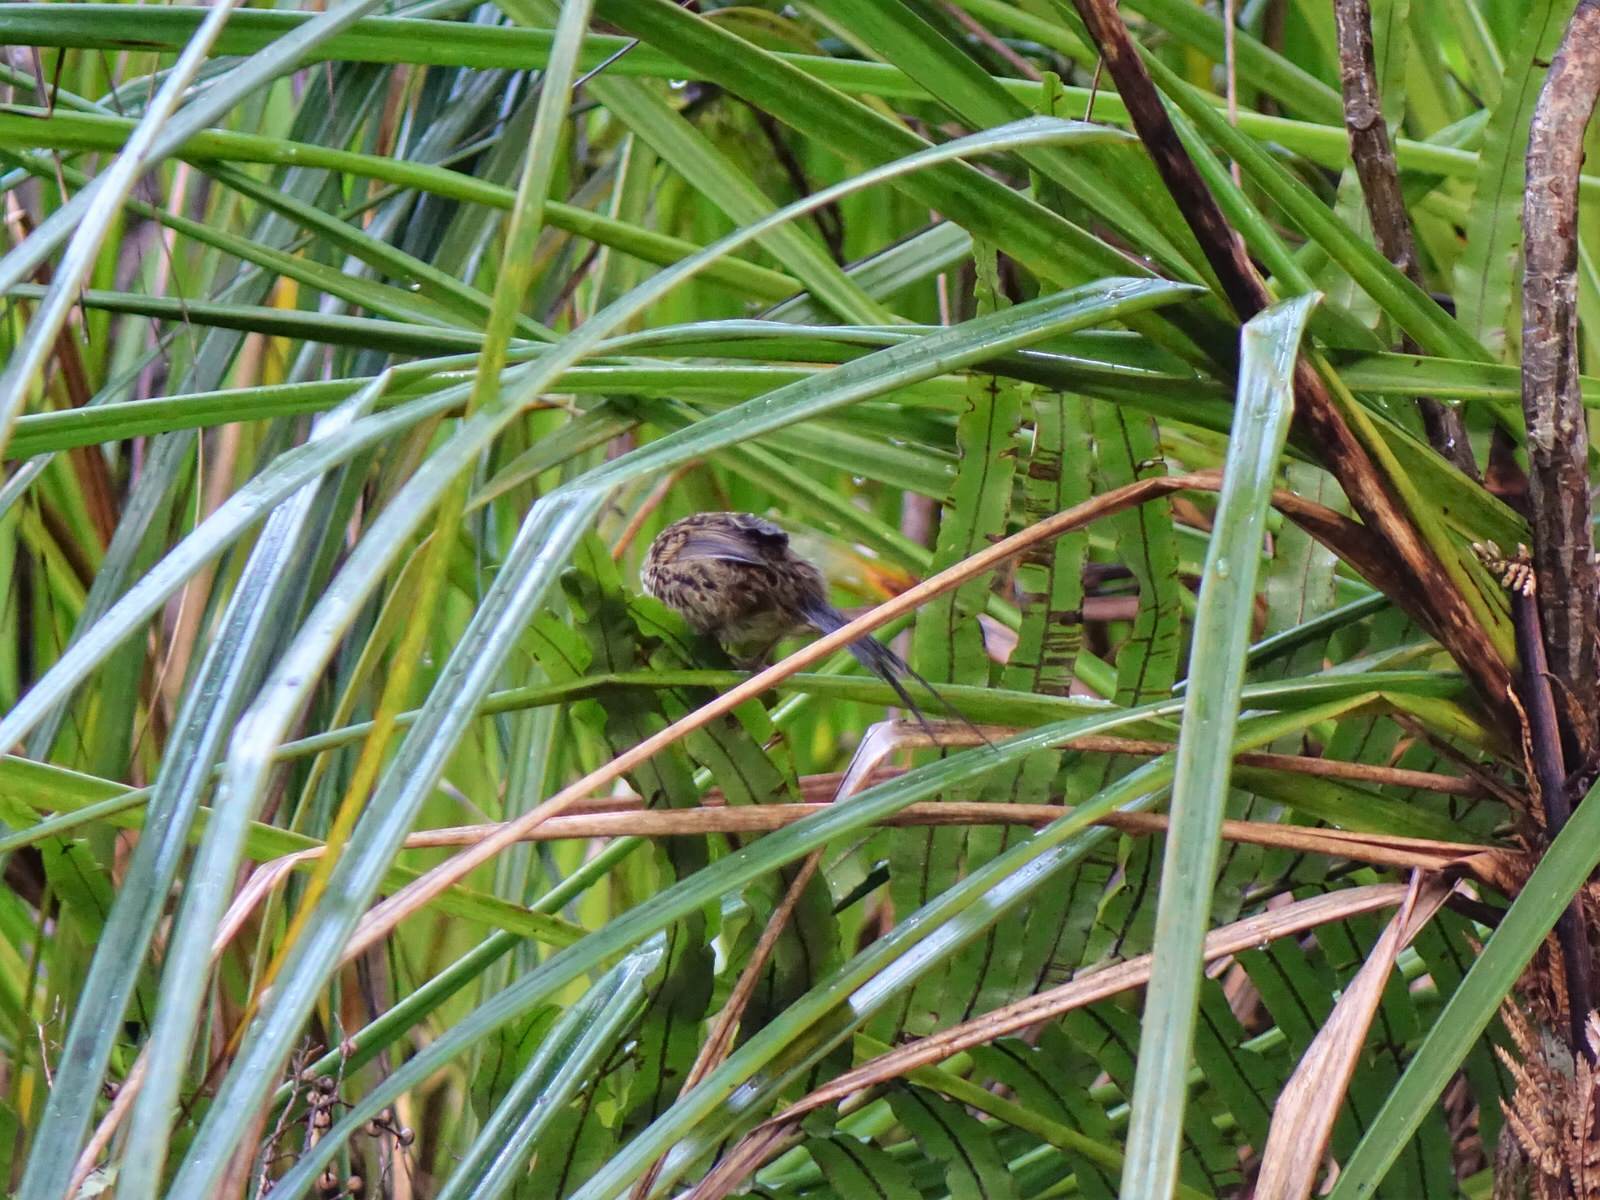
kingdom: Animalia
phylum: Chordata
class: Aves
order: Passeriformes
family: Locustellidae
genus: Megalurus
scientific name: Megalurus punctatus
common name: New zealand fernbird
